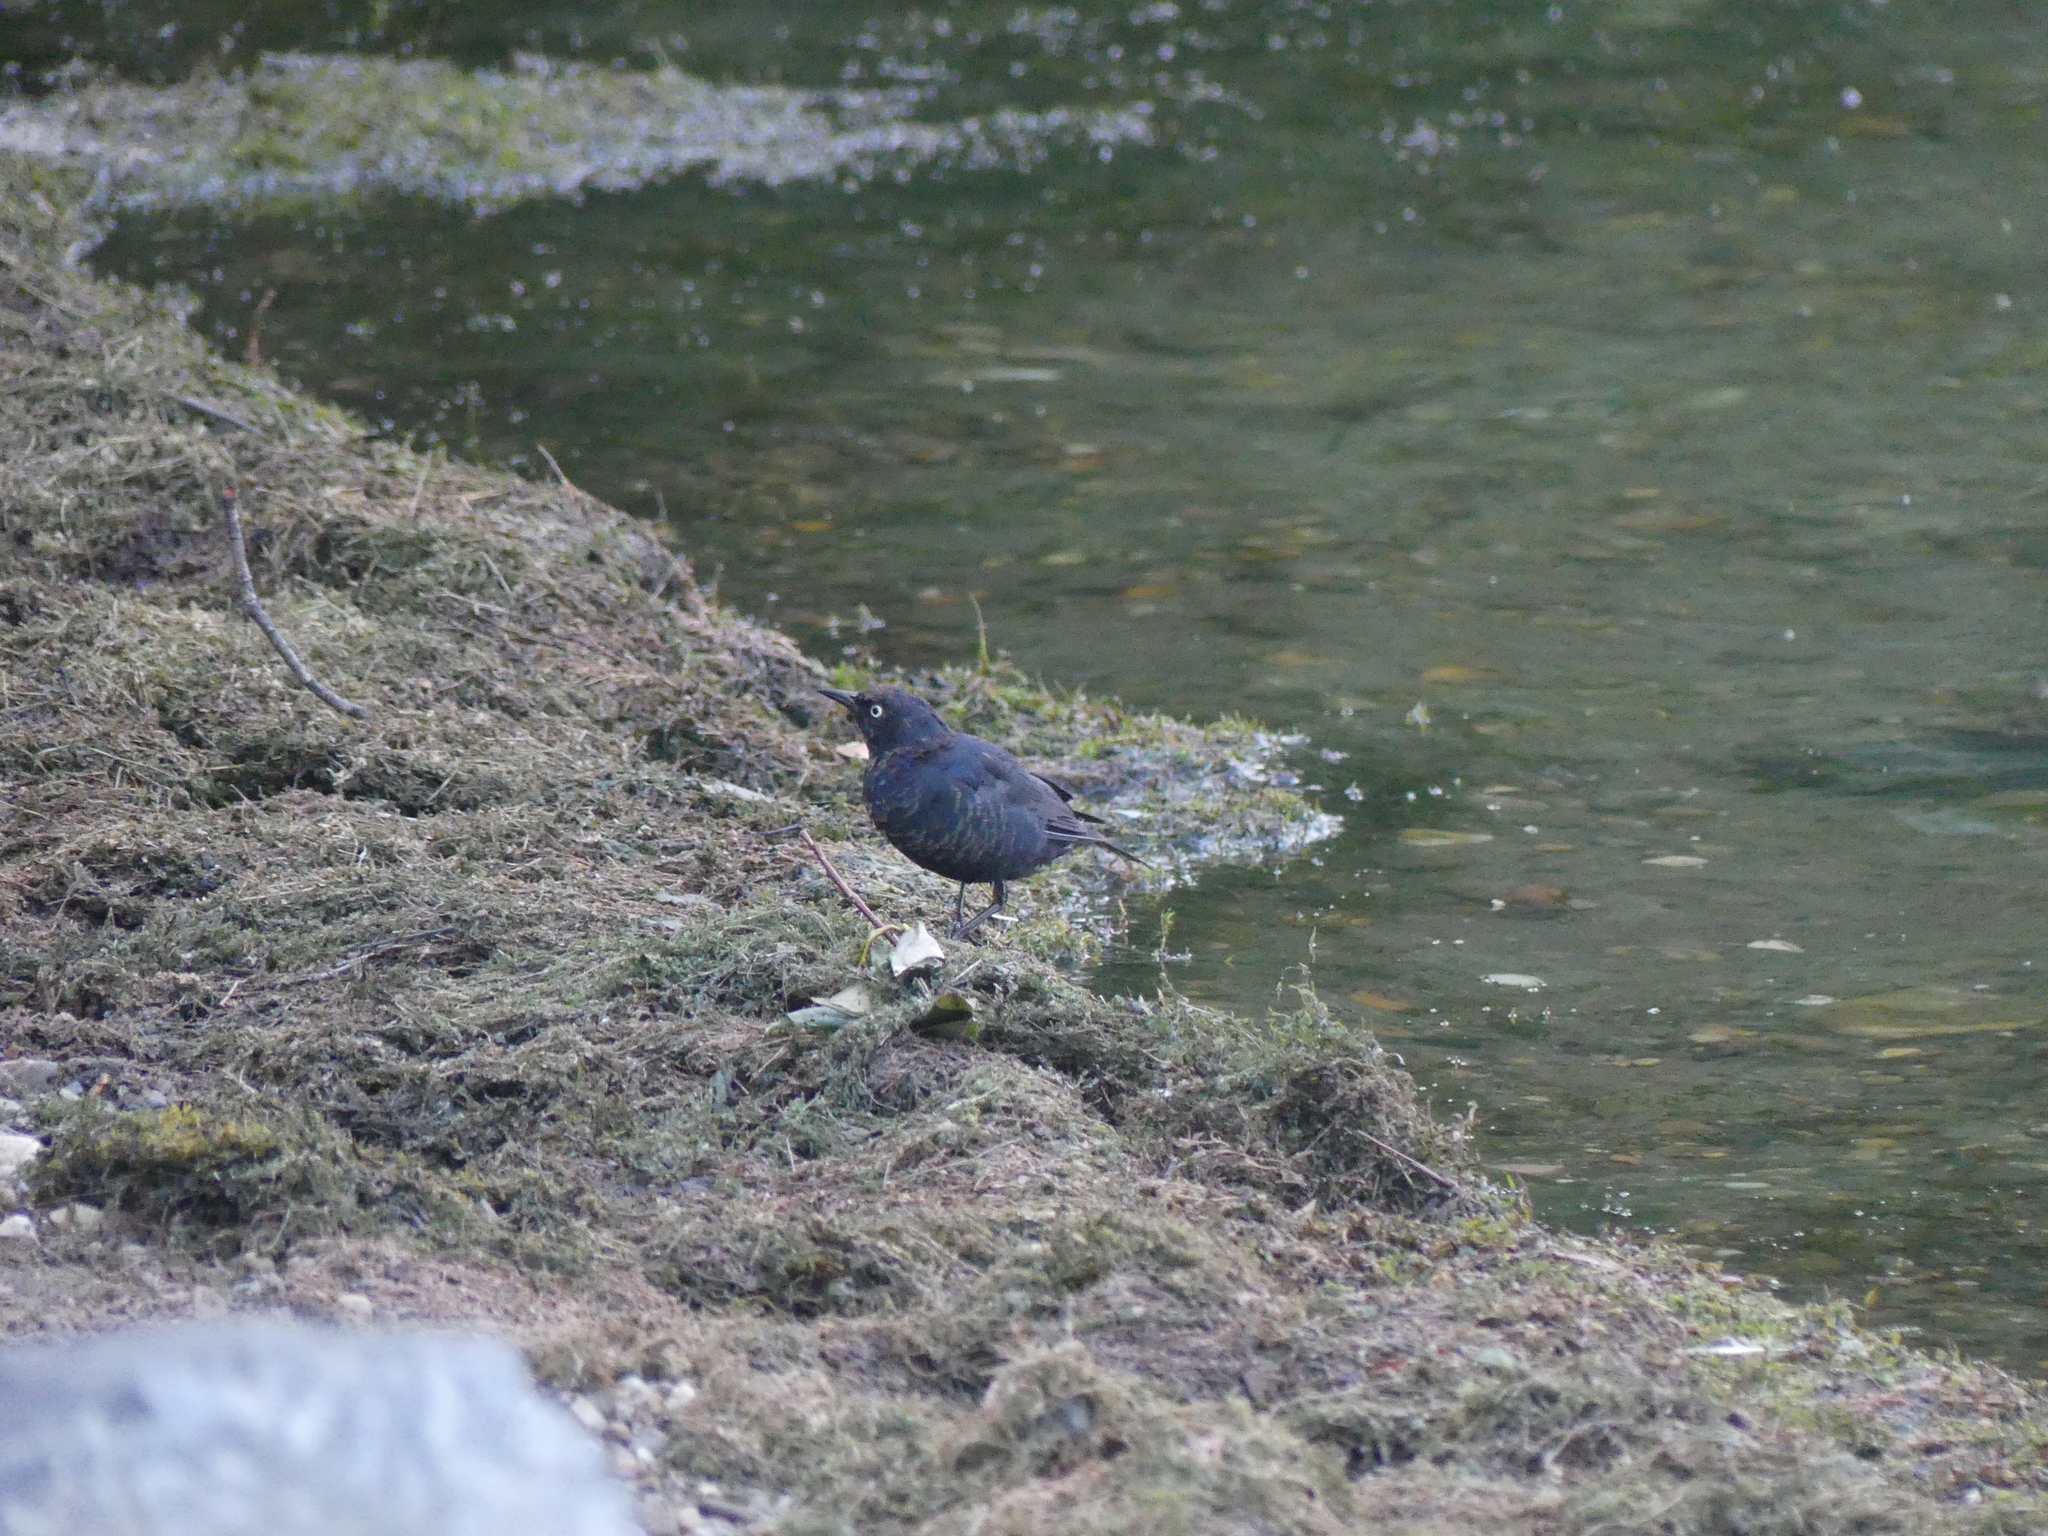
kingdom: Animalia
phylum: Chordata
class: Aves
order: Passeriformes
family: Icteridae
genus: Euphagus
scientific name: Euphagus carolinus
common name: Rusty blackbird
